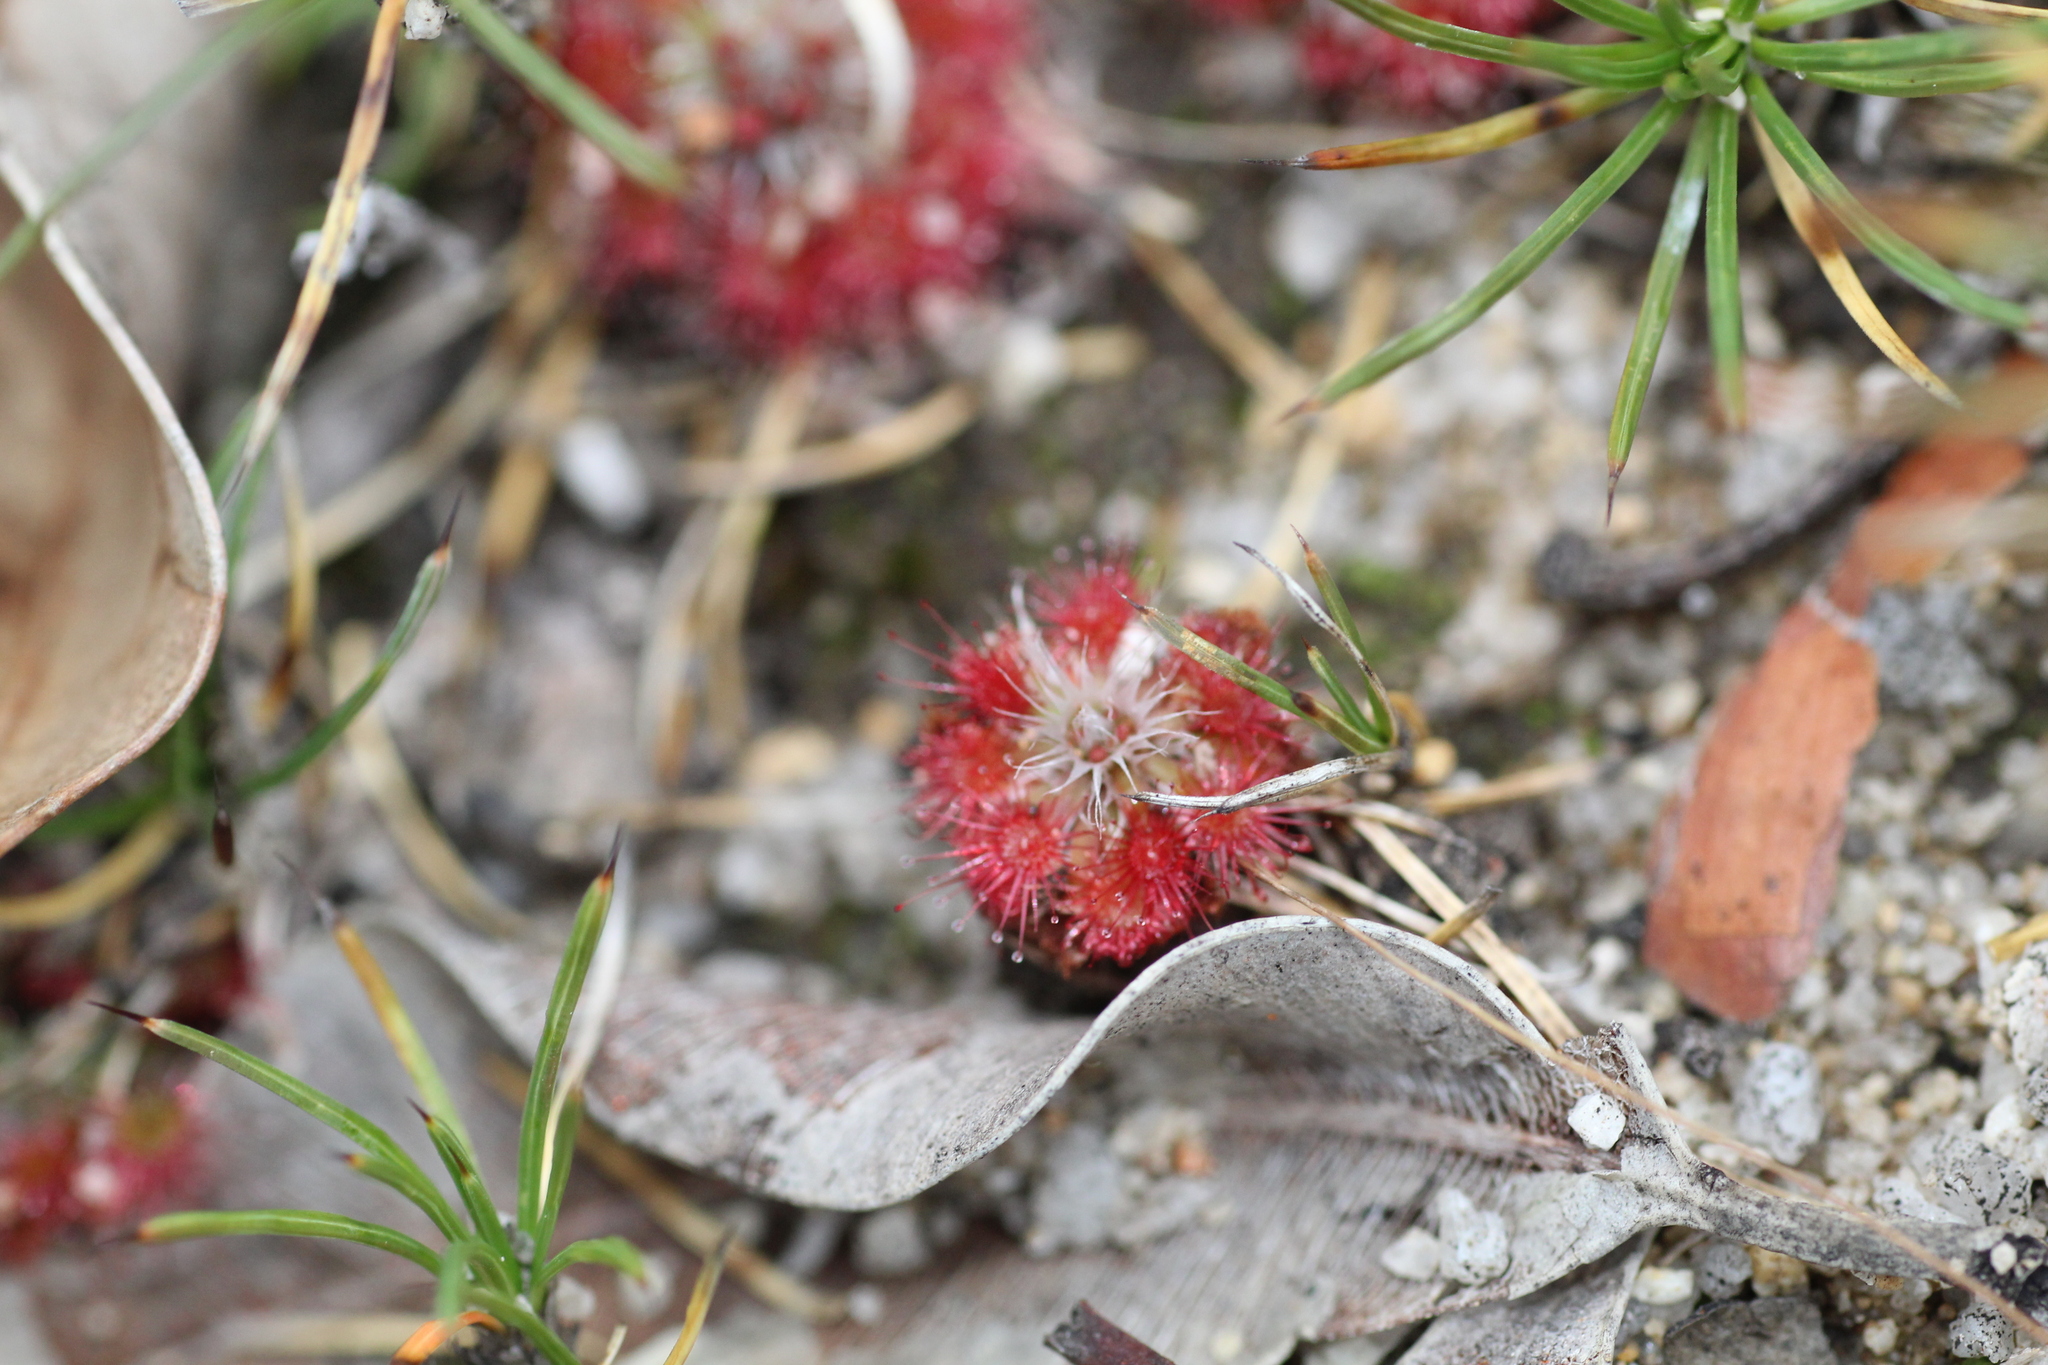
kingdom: Plantae
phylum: Tracheophyta
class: Magnoliopsida
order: Caryophyllales
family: Droseraceae
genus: Drosera
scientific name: Drosera spilos
